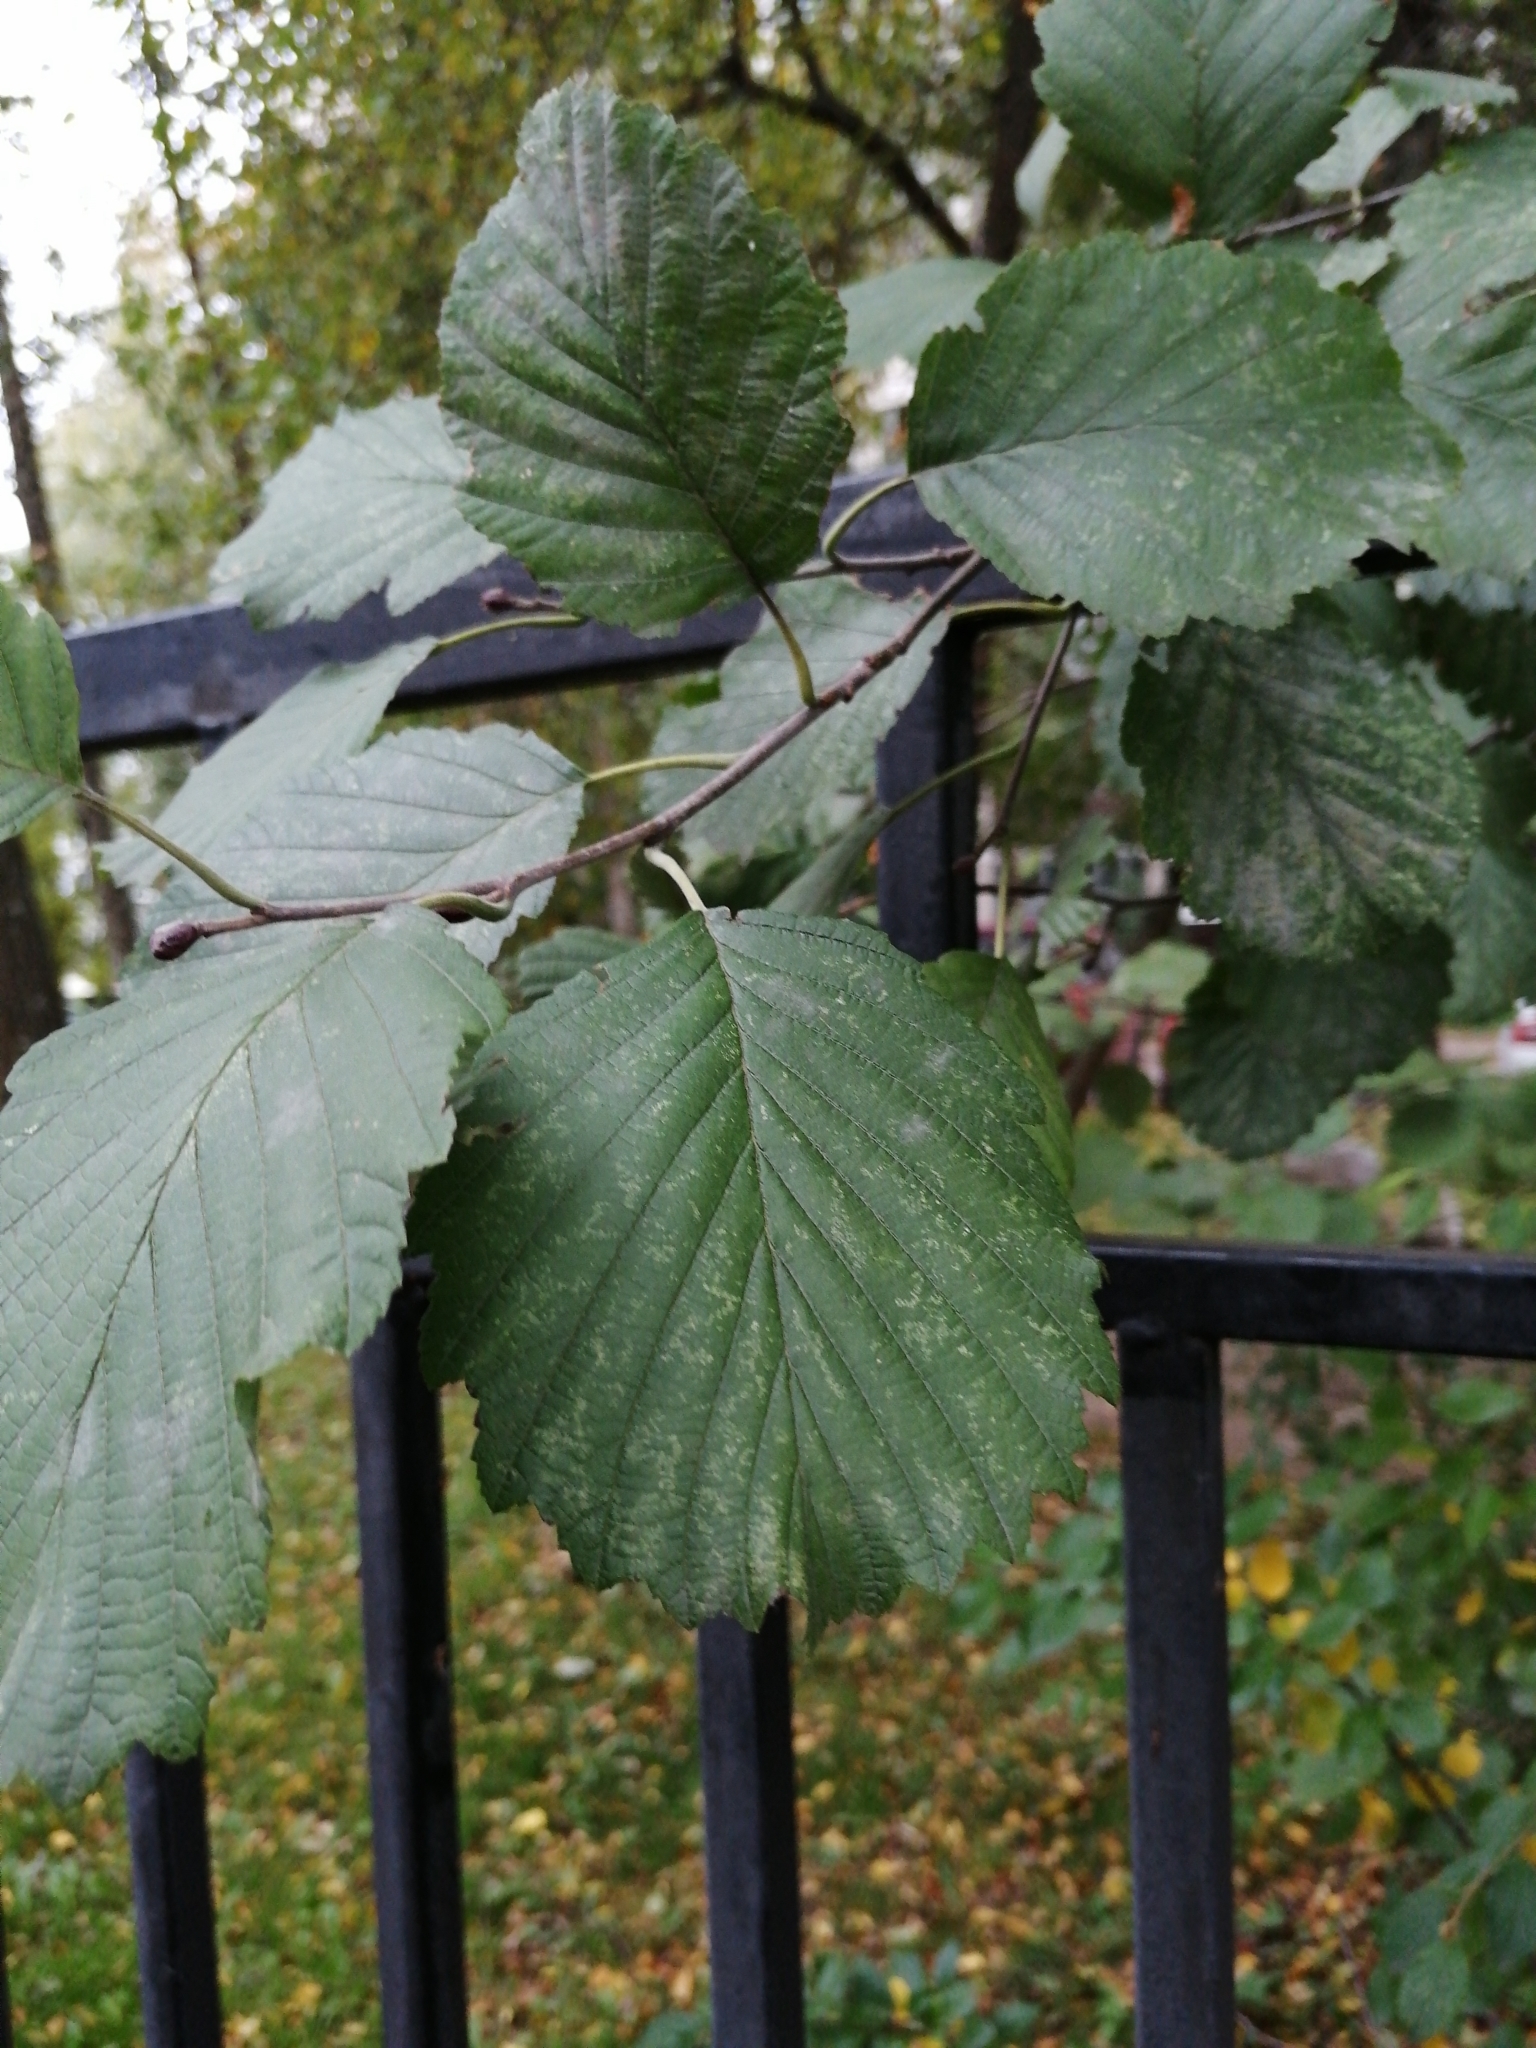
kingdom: Plantae
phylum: Tracheophyta
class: Magnoliopsida
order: Fagales
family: Betulaceae
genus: Alnus
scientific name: Alnus glutinosa
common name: Black alder
